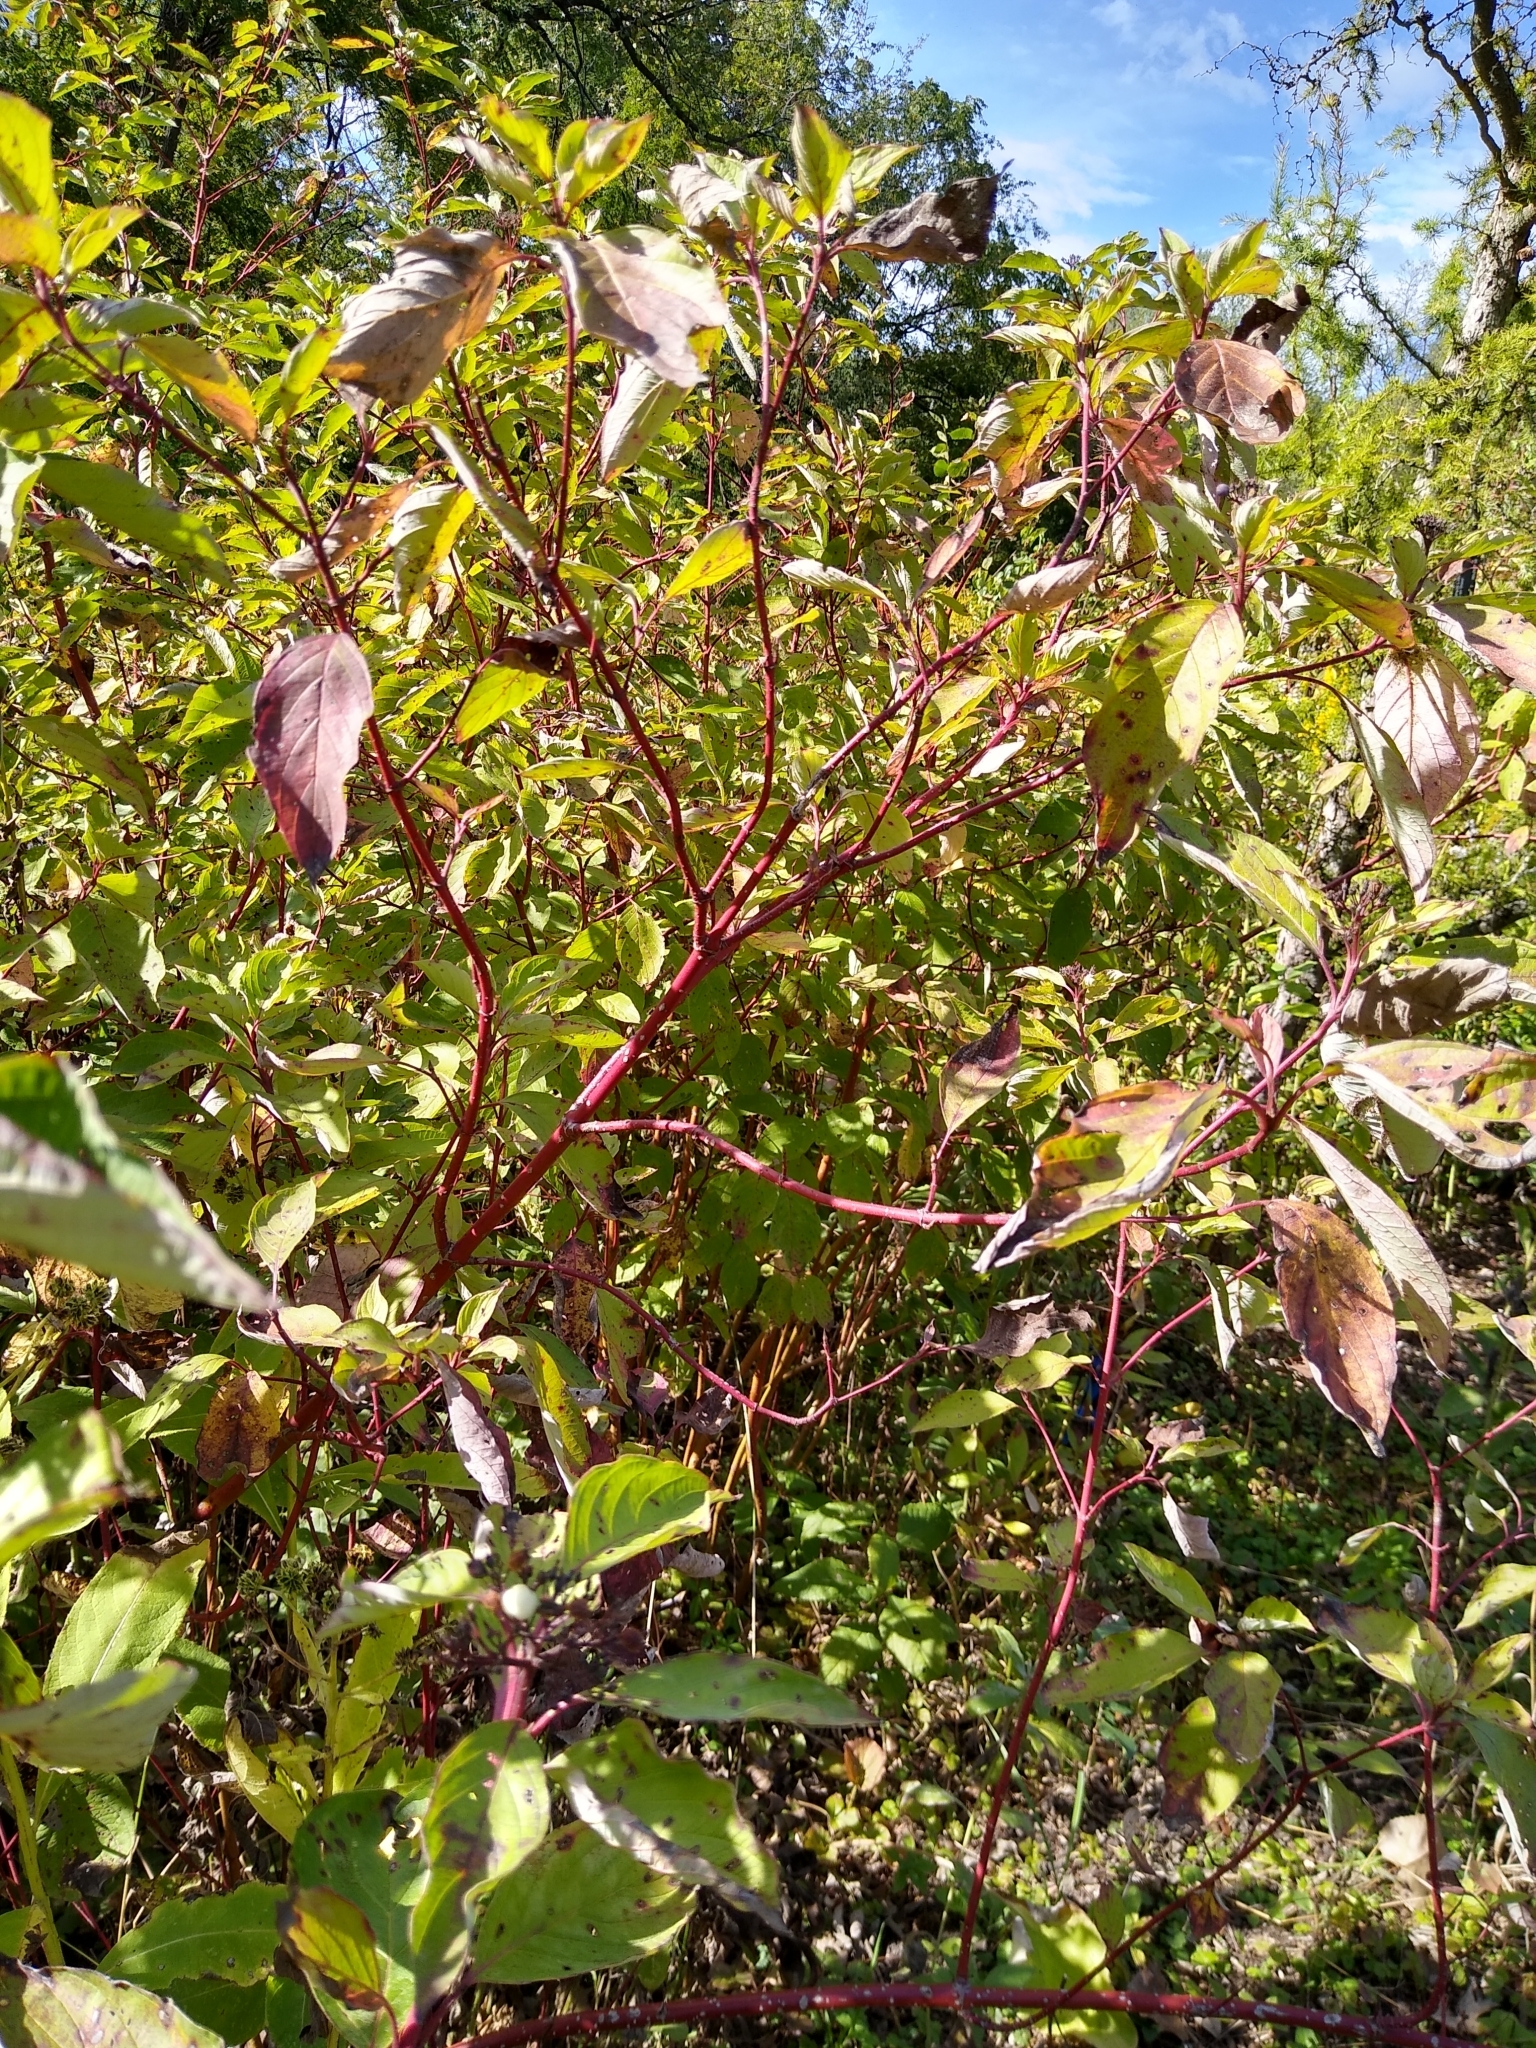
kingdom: Plantae
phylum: Tracheophyta
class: Magnoliopsida
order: Cornales
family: Cornaceae
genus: Cornus
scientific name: Cornus sericea
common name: Red-osier dogwood
